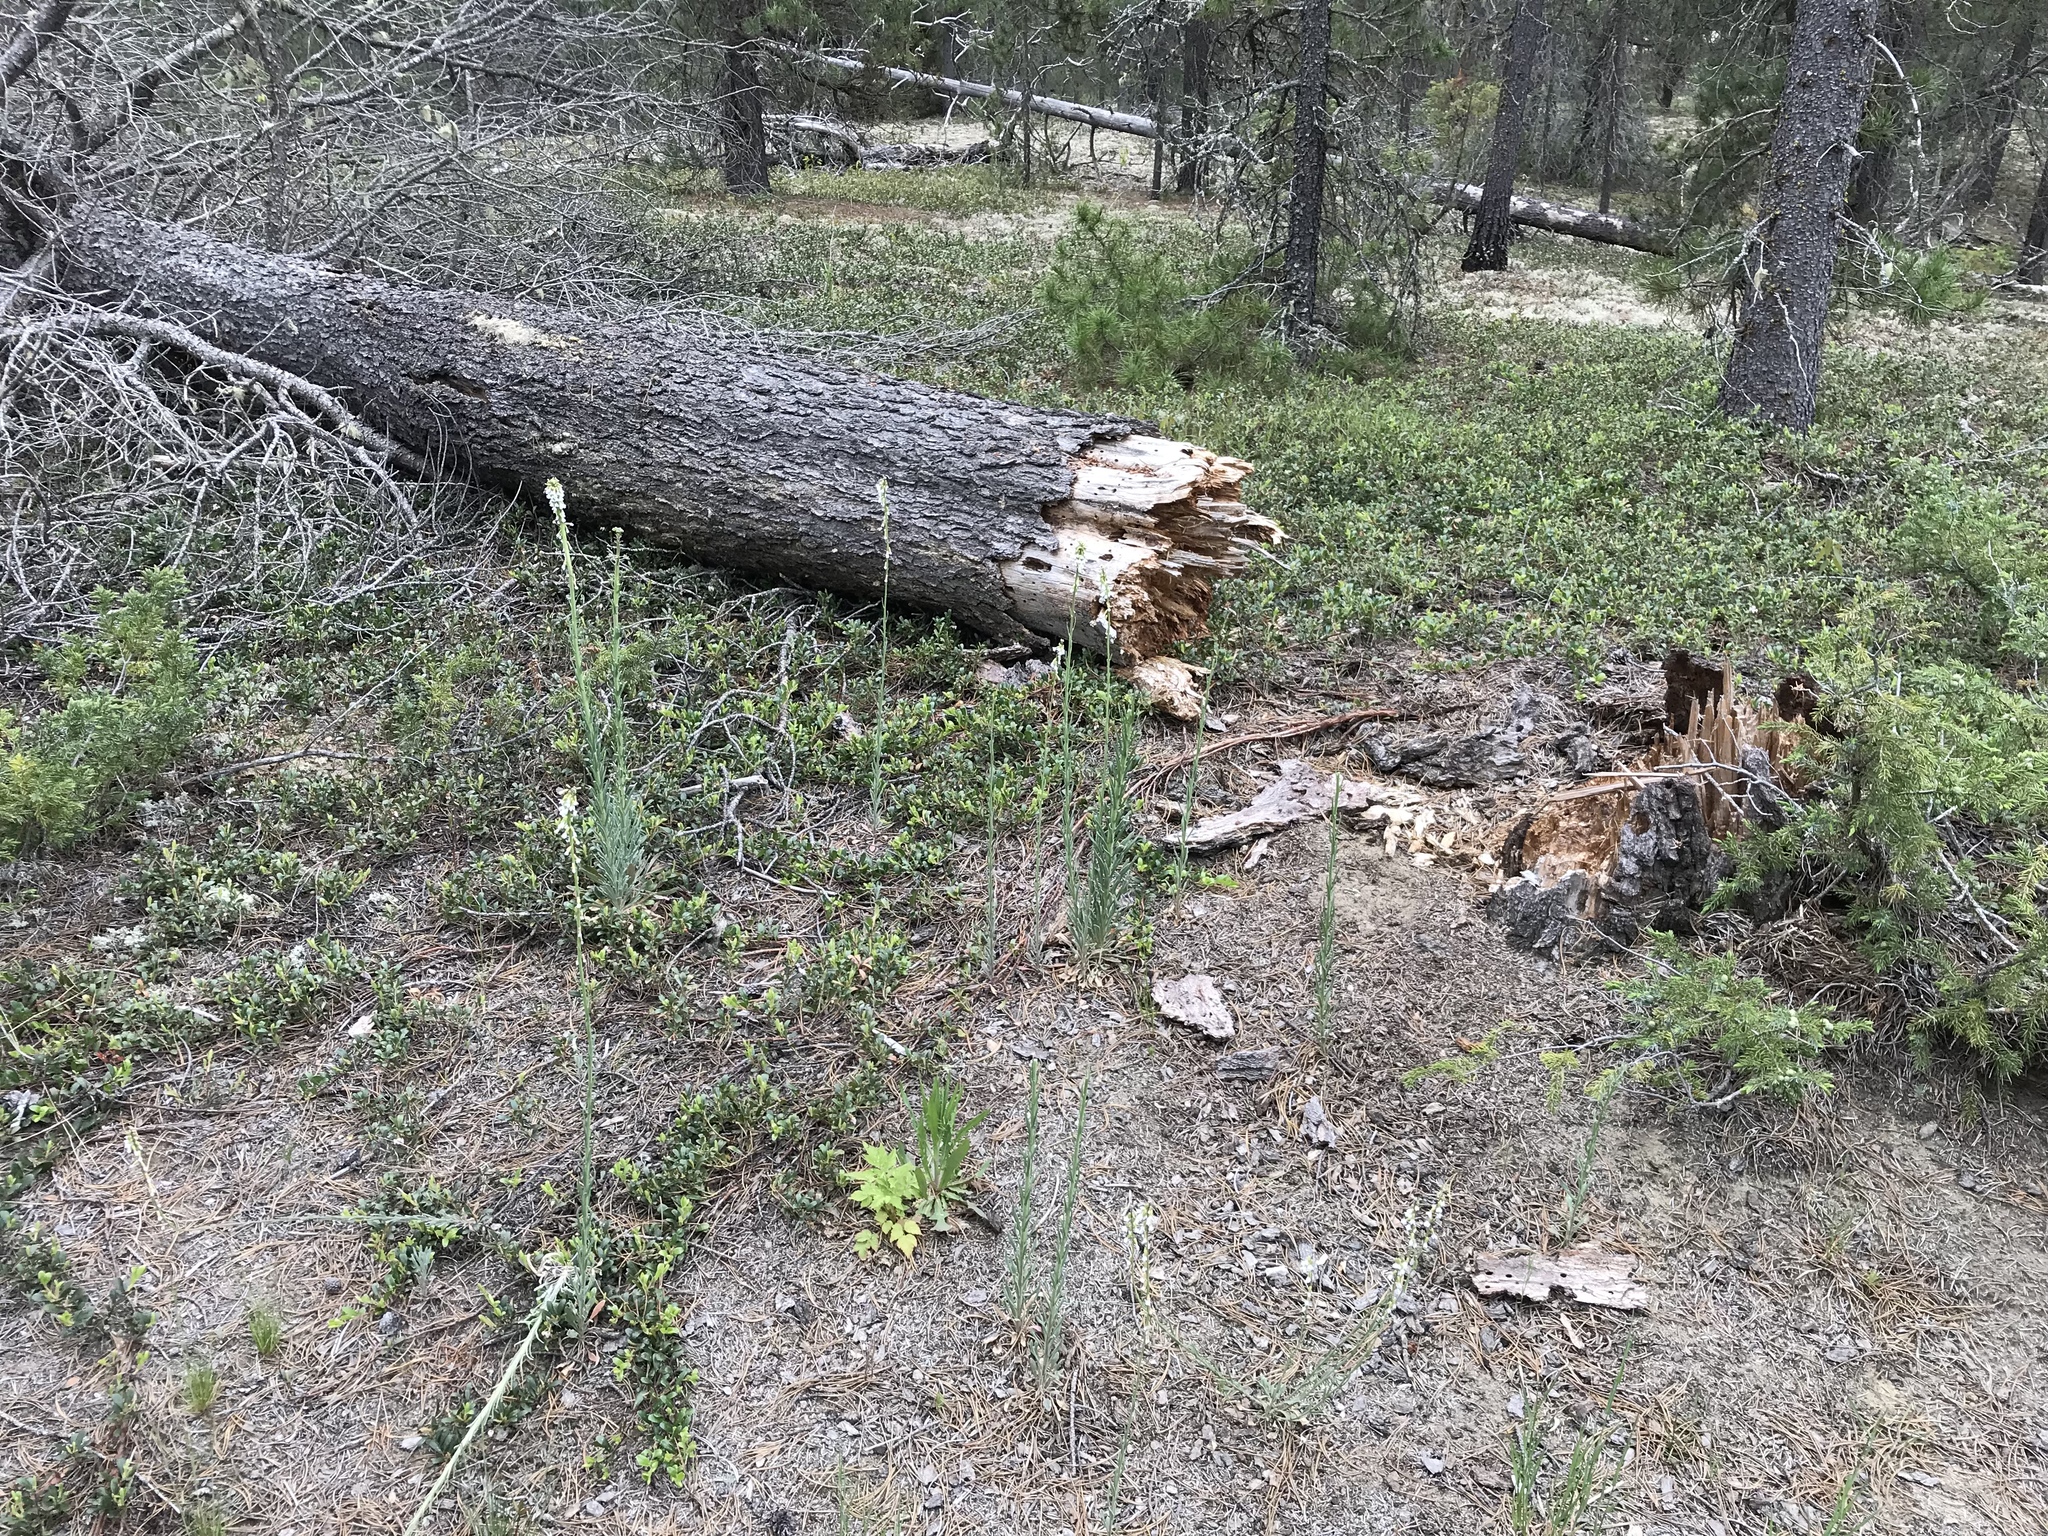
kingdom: Plantae
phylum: Tracheophyta
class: Magnoliopsida
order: Brassicales
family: Brassicaceae
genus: Boechera
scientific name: Boechera retrofracta
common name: Dangling suncress
